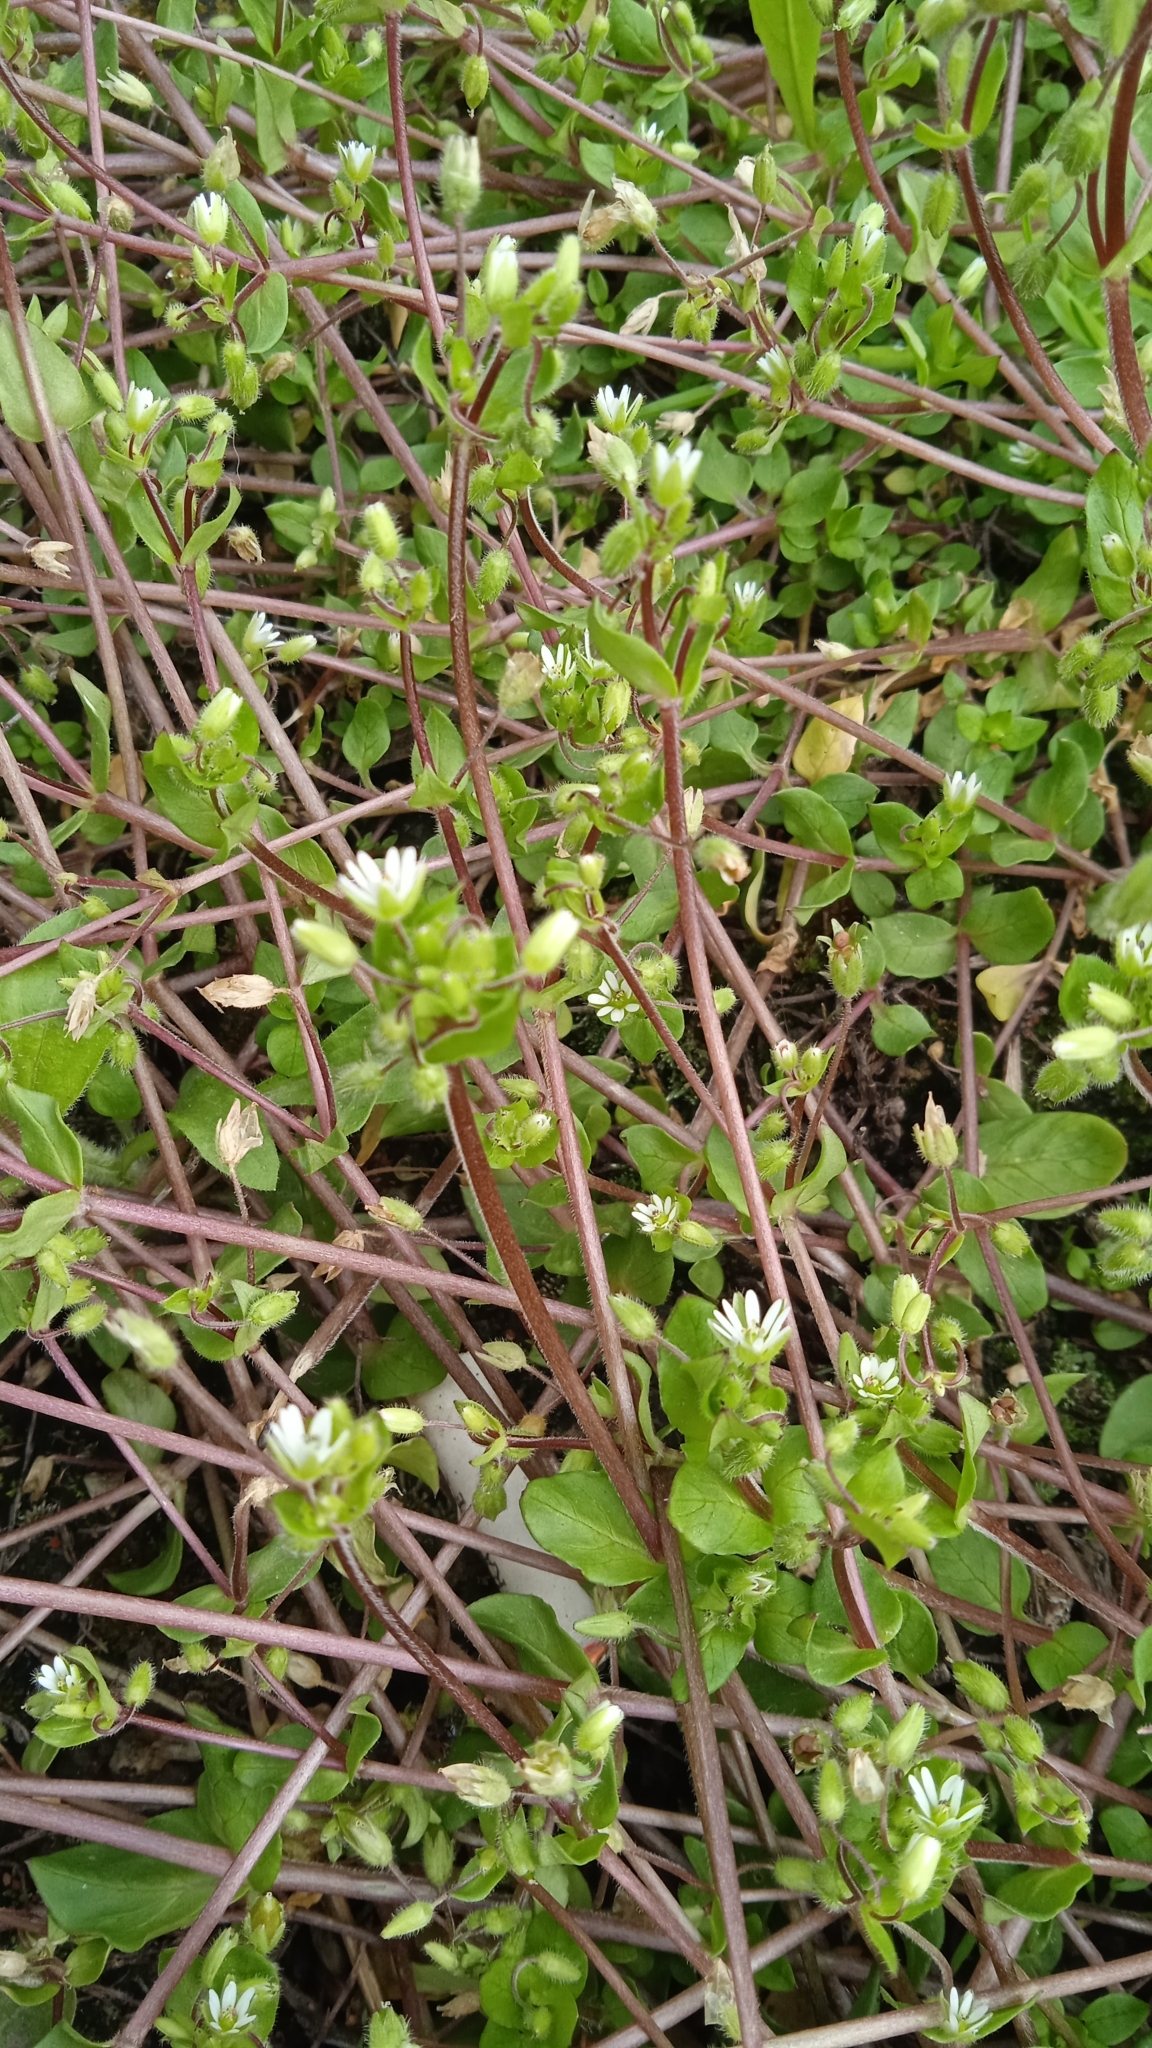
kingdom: Plantae
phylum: Tracheophyta
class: Magnoliopsida
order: Caryophyllales
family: Caryophyllaceae
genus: Stellaria
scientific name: Stellaria media
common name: Common chickweed
